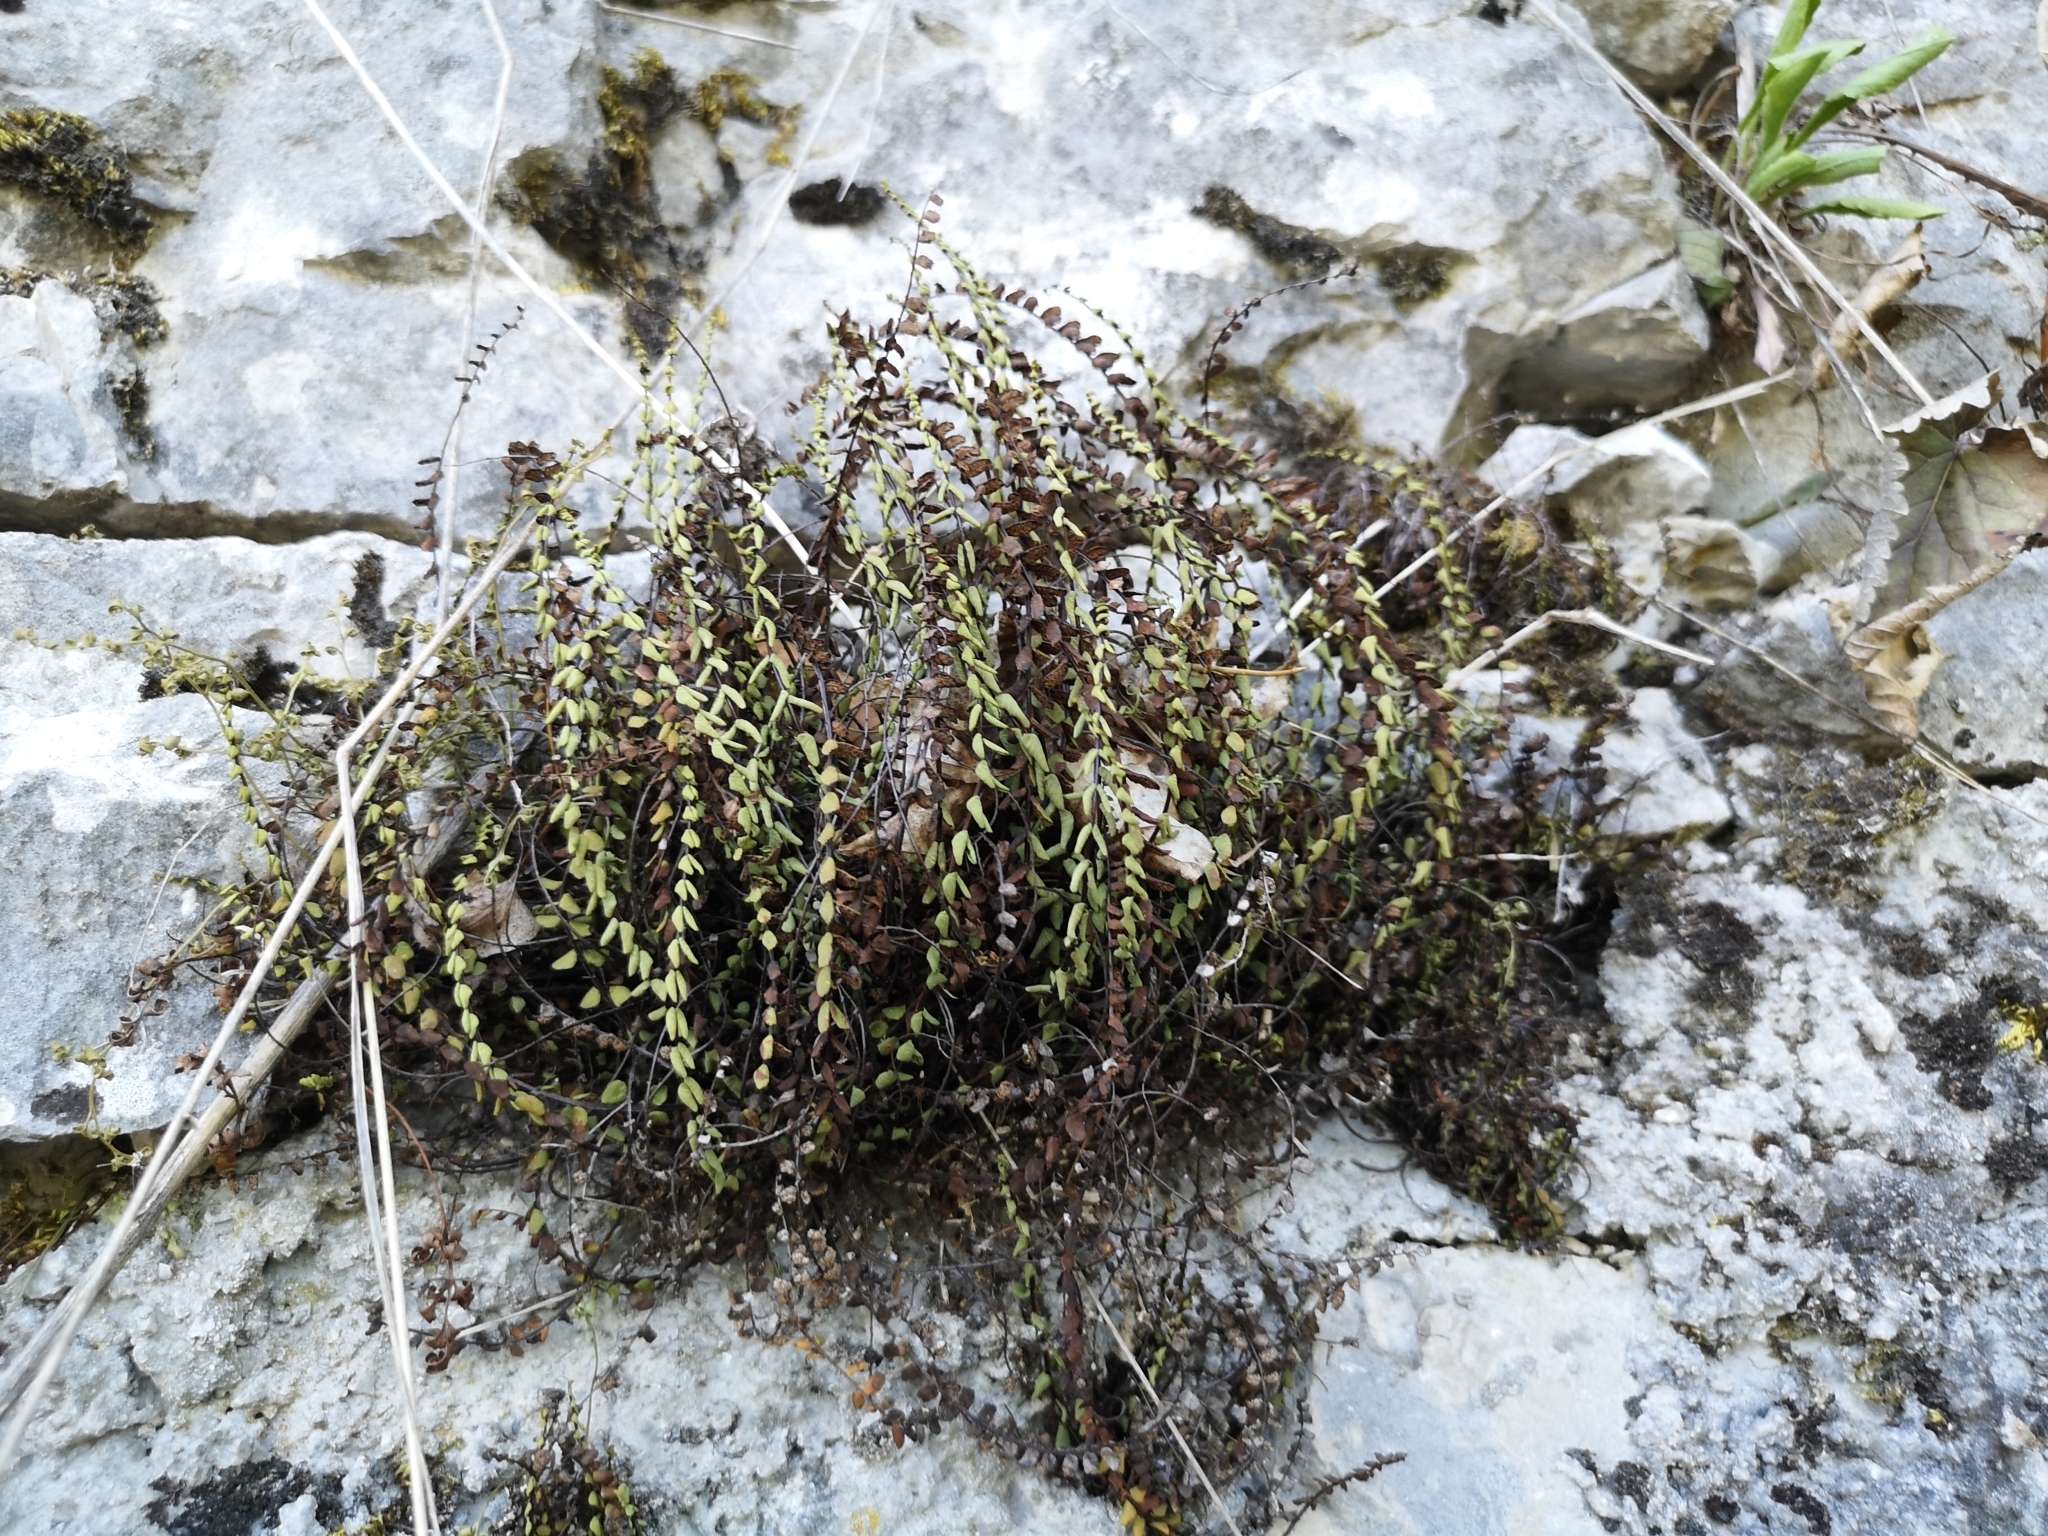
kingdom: Plantae
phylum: Tracheophyta
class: Polypodiopsida
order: Polypodiales
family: Aspleniaceae
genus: Asplenium
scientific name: Asplenium trichomanes
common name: Maidenhair spleenwort
